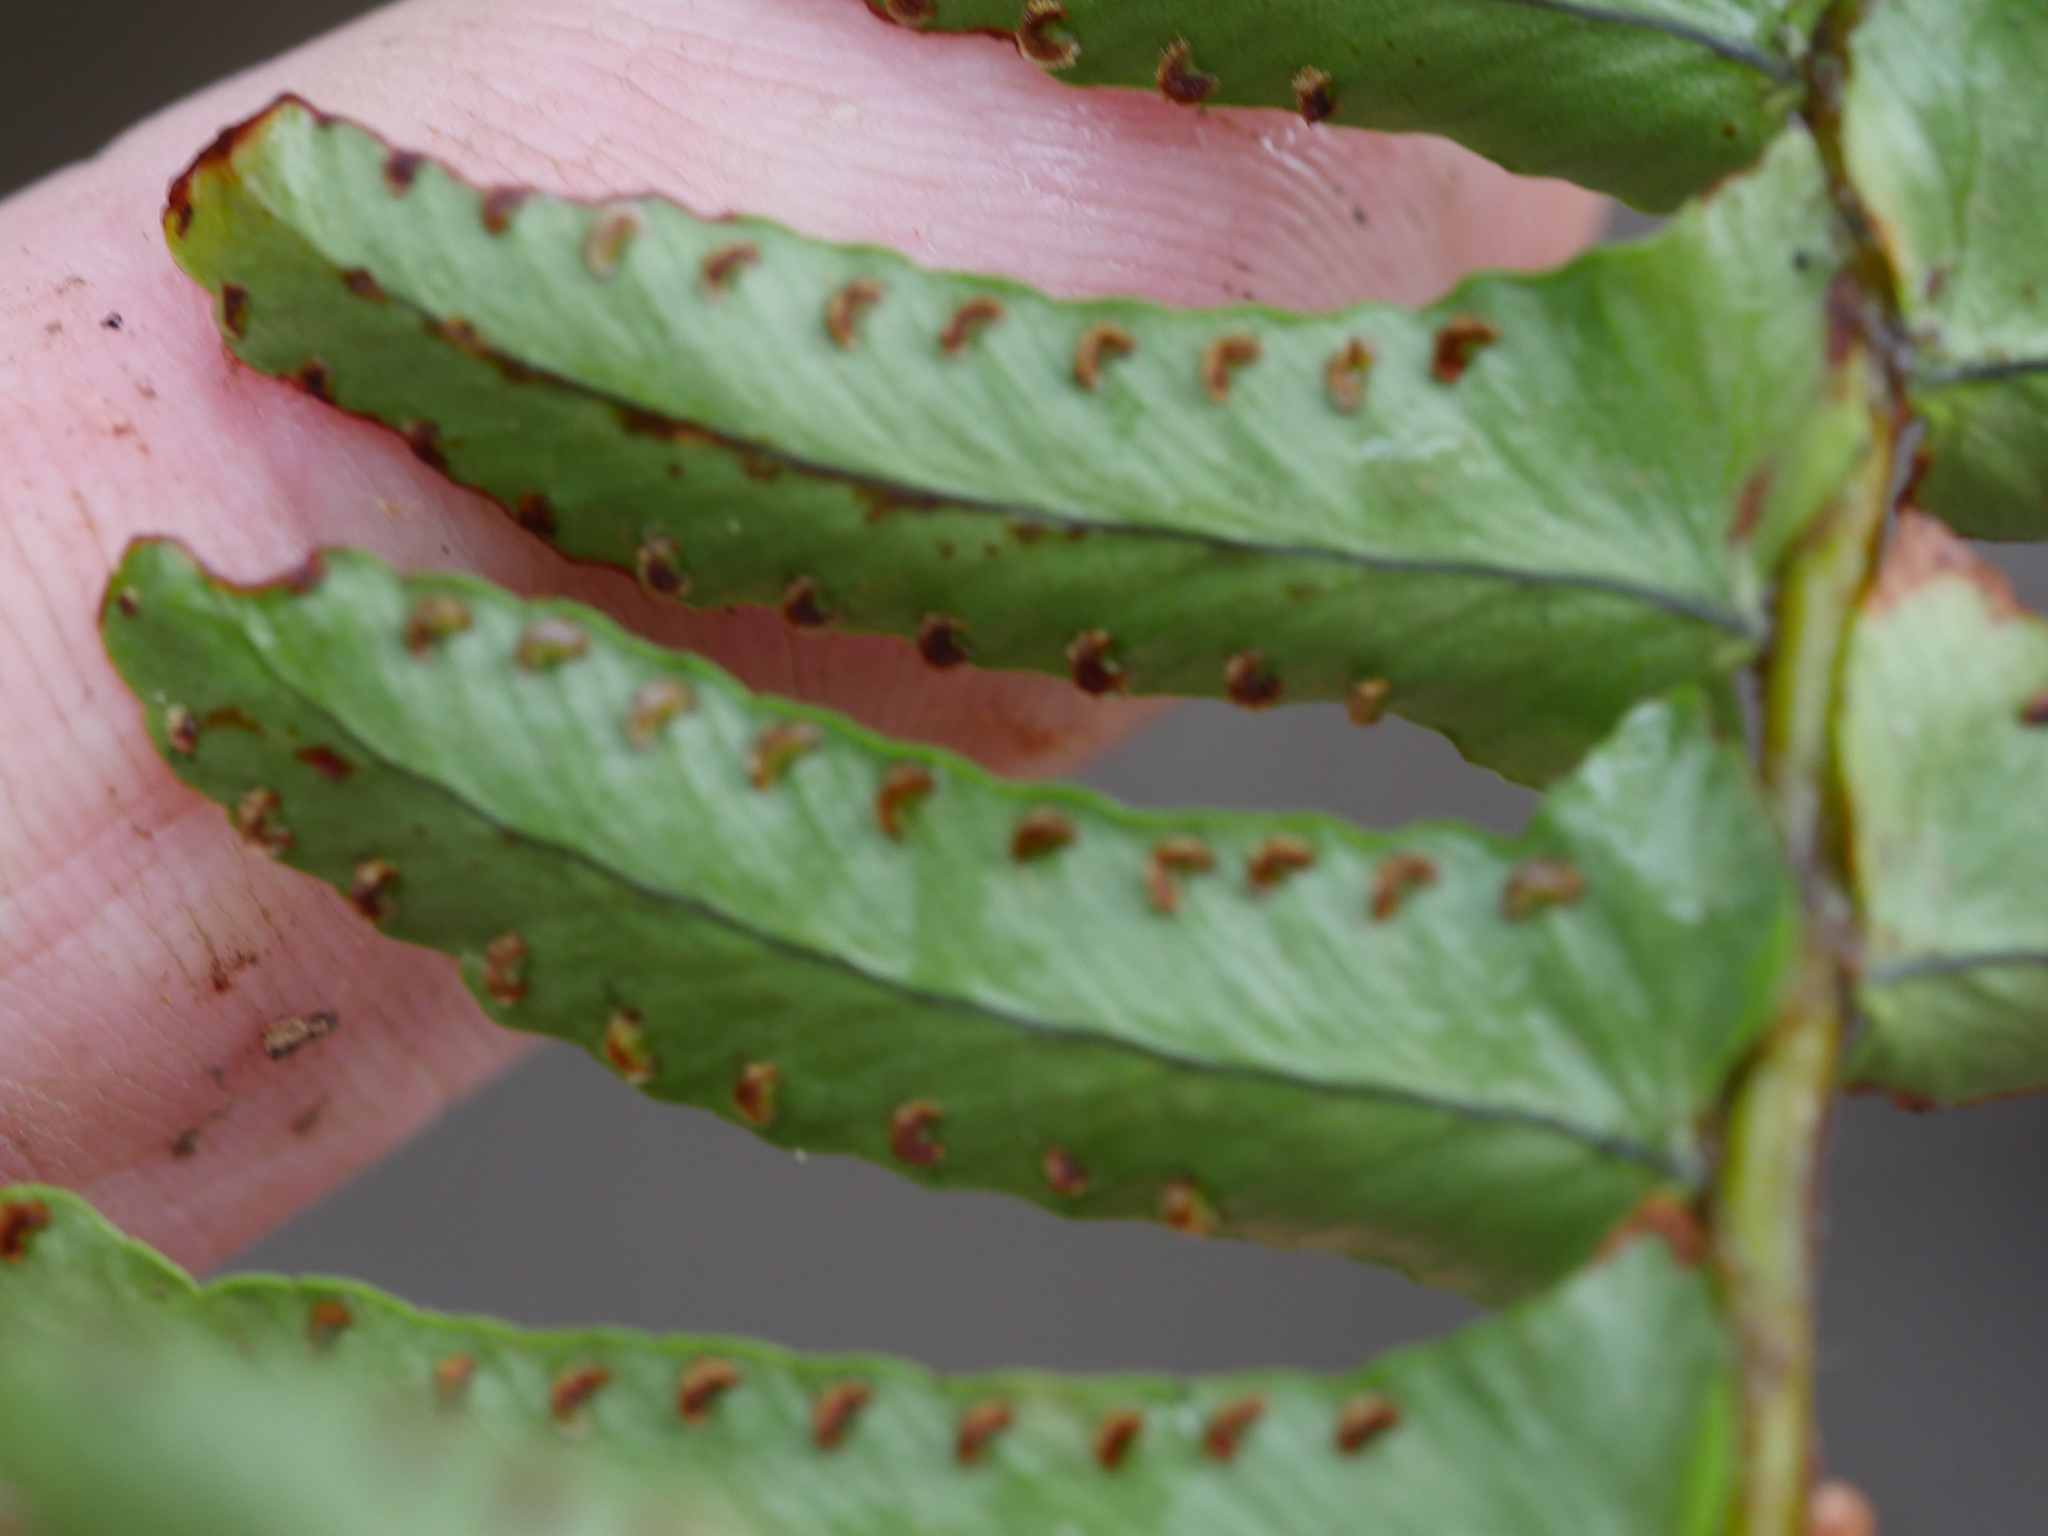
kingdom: Plantae
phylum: Tracheophyta
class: Polypodiopsida
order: Polypodiales
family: Nephrolepidaceae
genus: Nephrolepis
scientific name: Nephrolepis cordifolia
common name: Narrow swordfern
